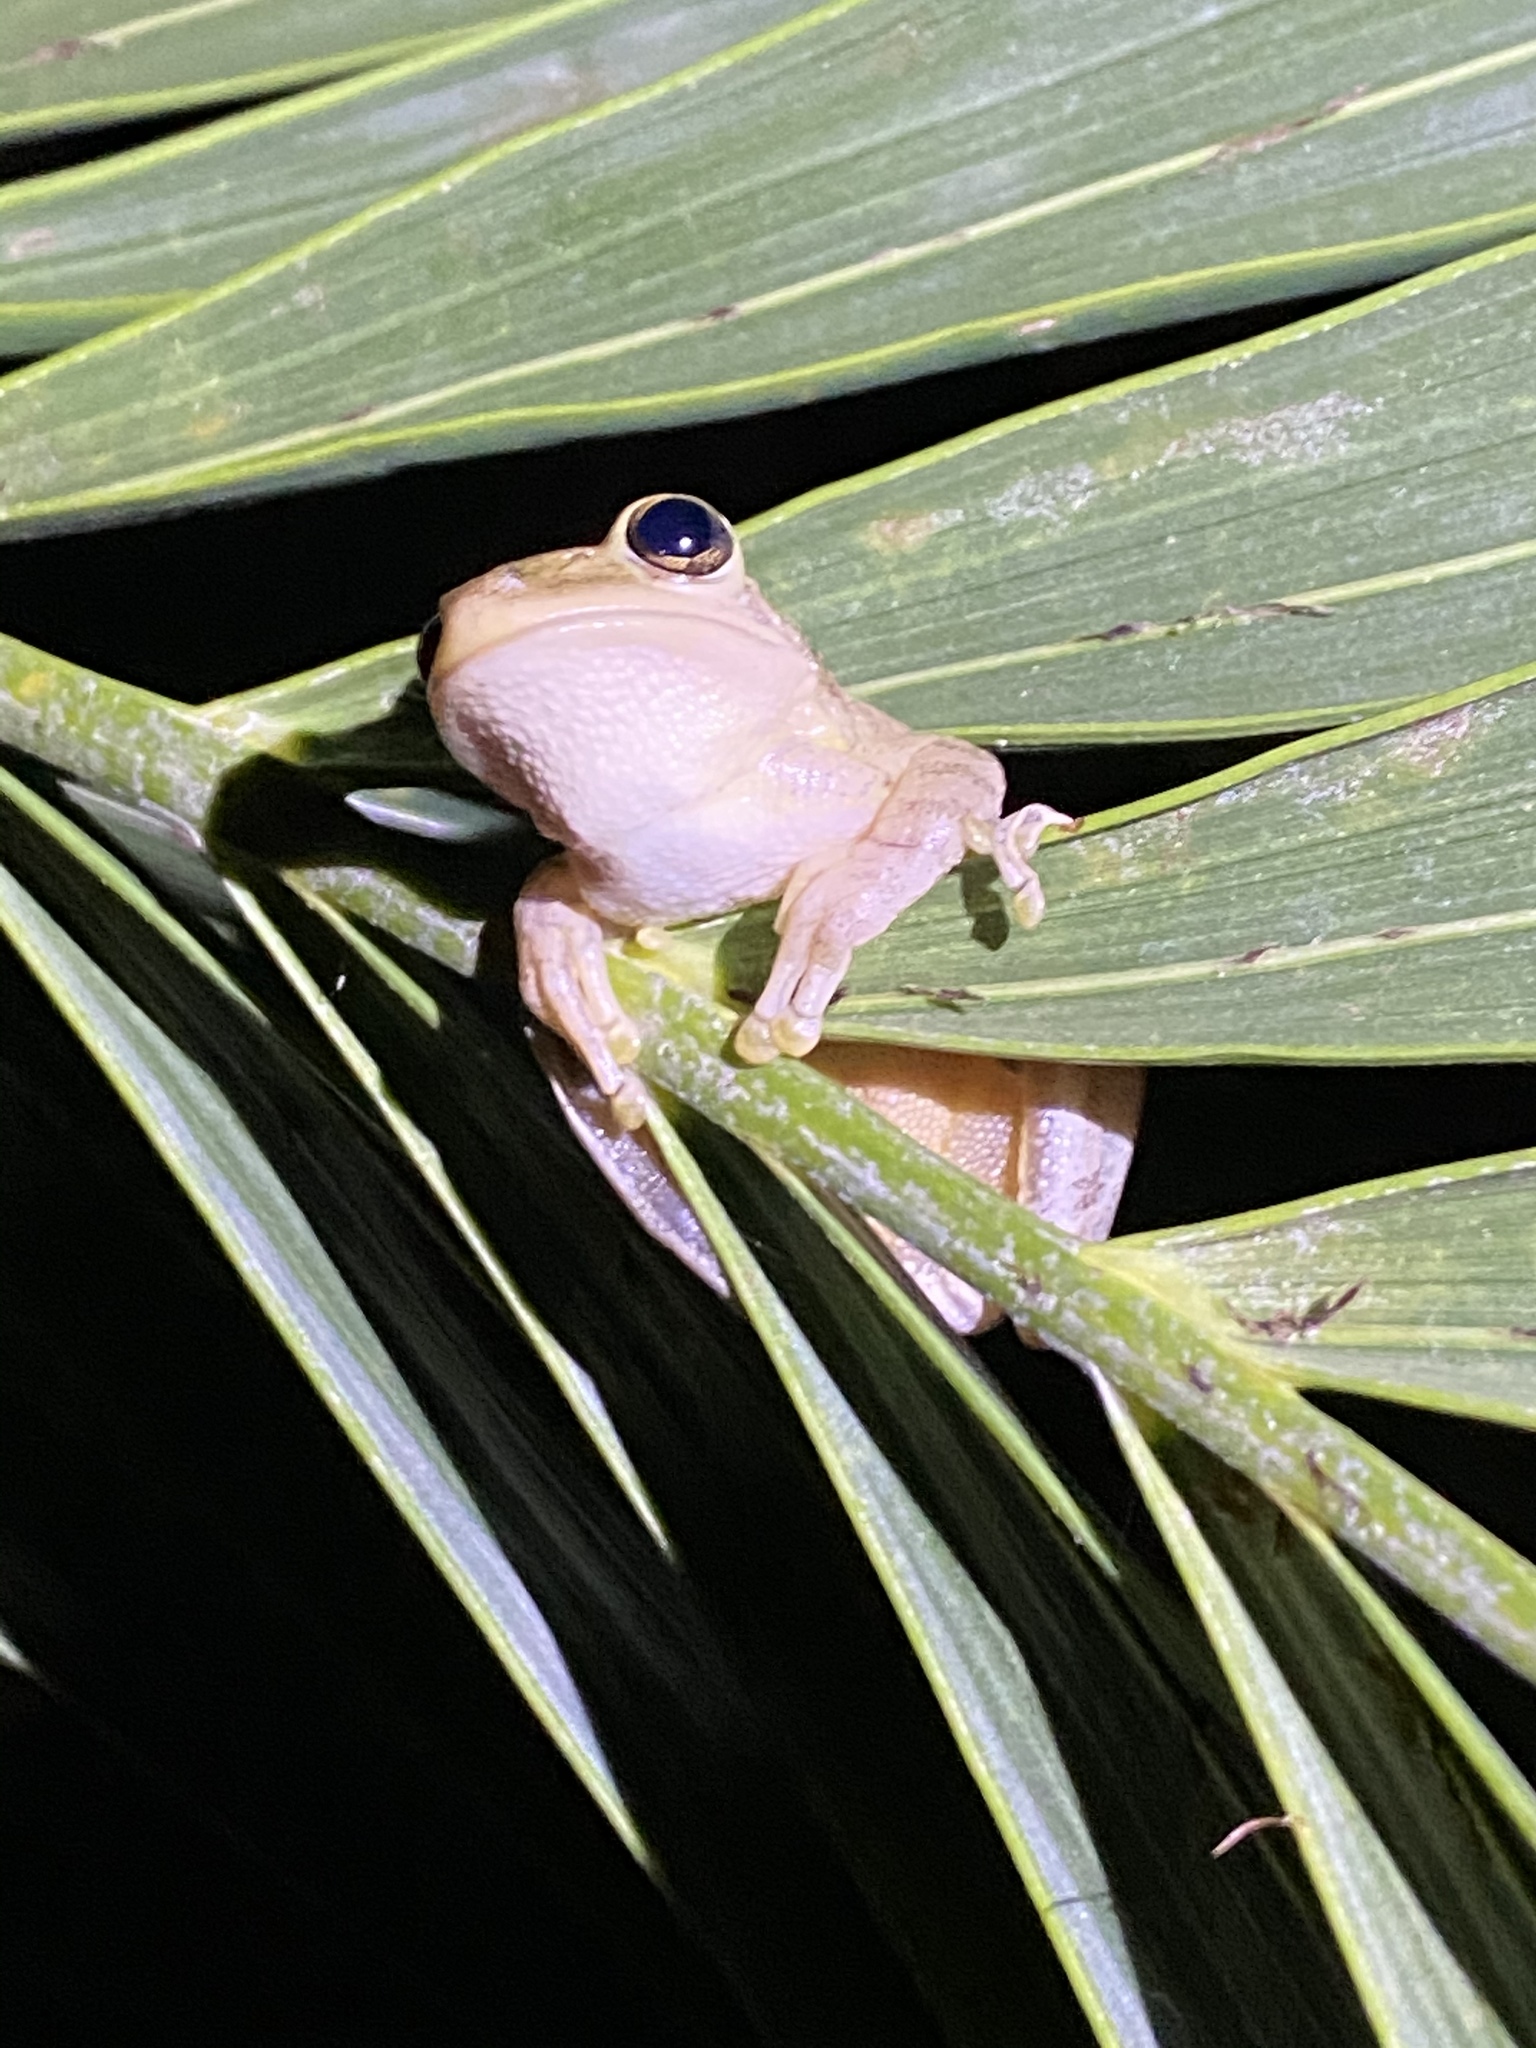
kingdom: Animalia
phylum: Chordata
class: Amphibia
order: Anura
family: Hylidae
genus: Osteopilus
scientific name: Osteopilus septentrionalis
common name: Cuban treefrog
